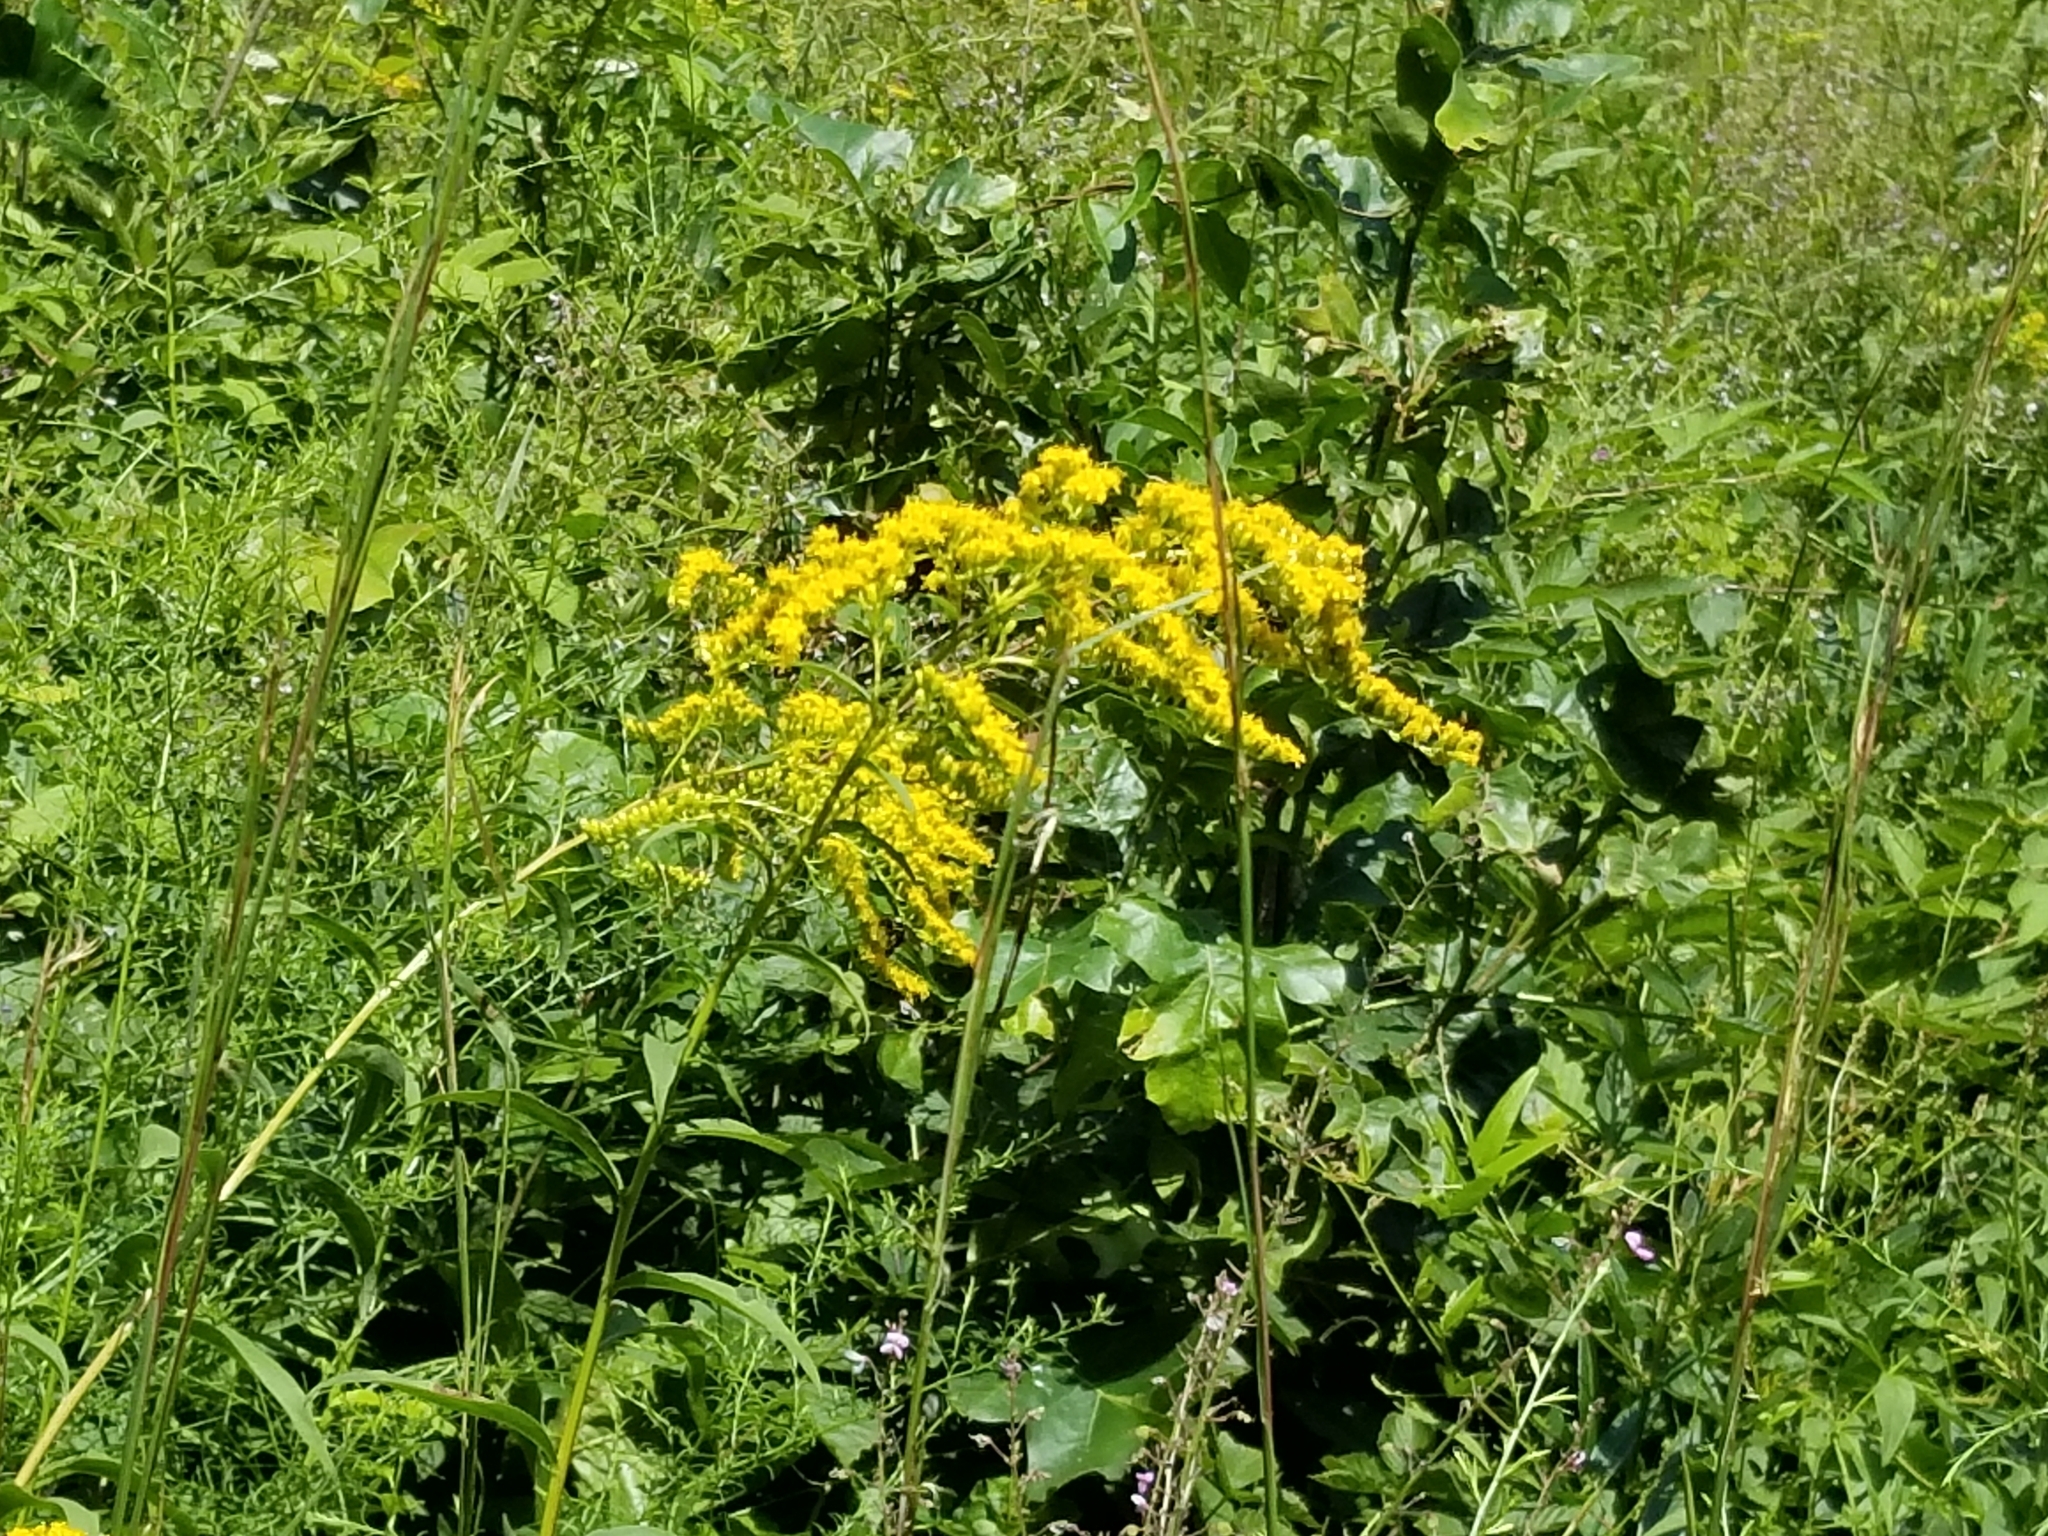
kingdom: Plantae
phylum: Tracheophyta
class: Magnoliopsida
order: Asterales
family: Asteraceae
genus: Solidago
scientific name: Solidago juncea
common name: Early goldenrod
